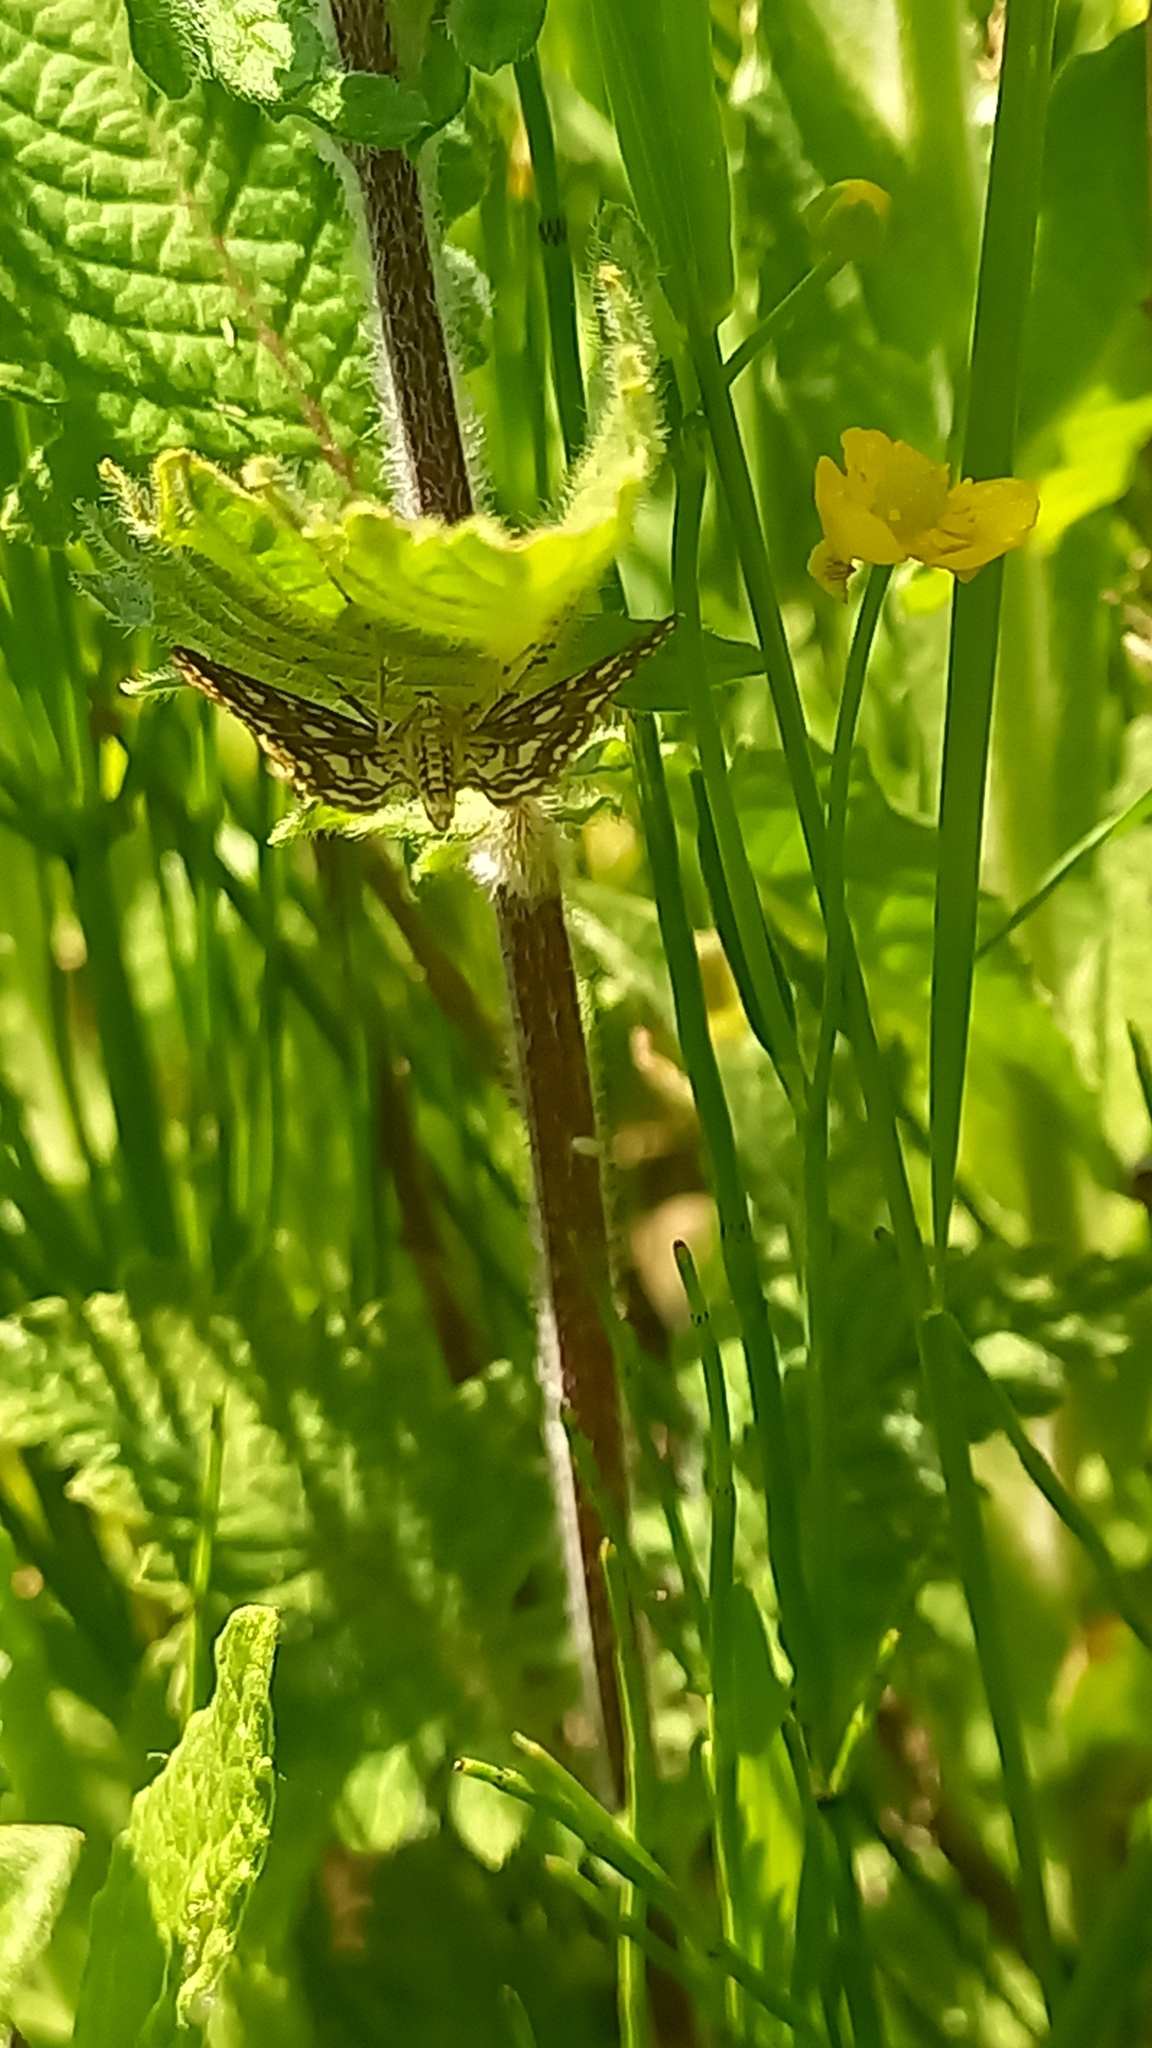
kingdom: Animalia
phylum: Arthropoda
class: Insecta
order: Lepidoptera
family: Crambidae
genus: Elophila
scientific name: Elophila nymphaeata
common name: Brown china-mark
